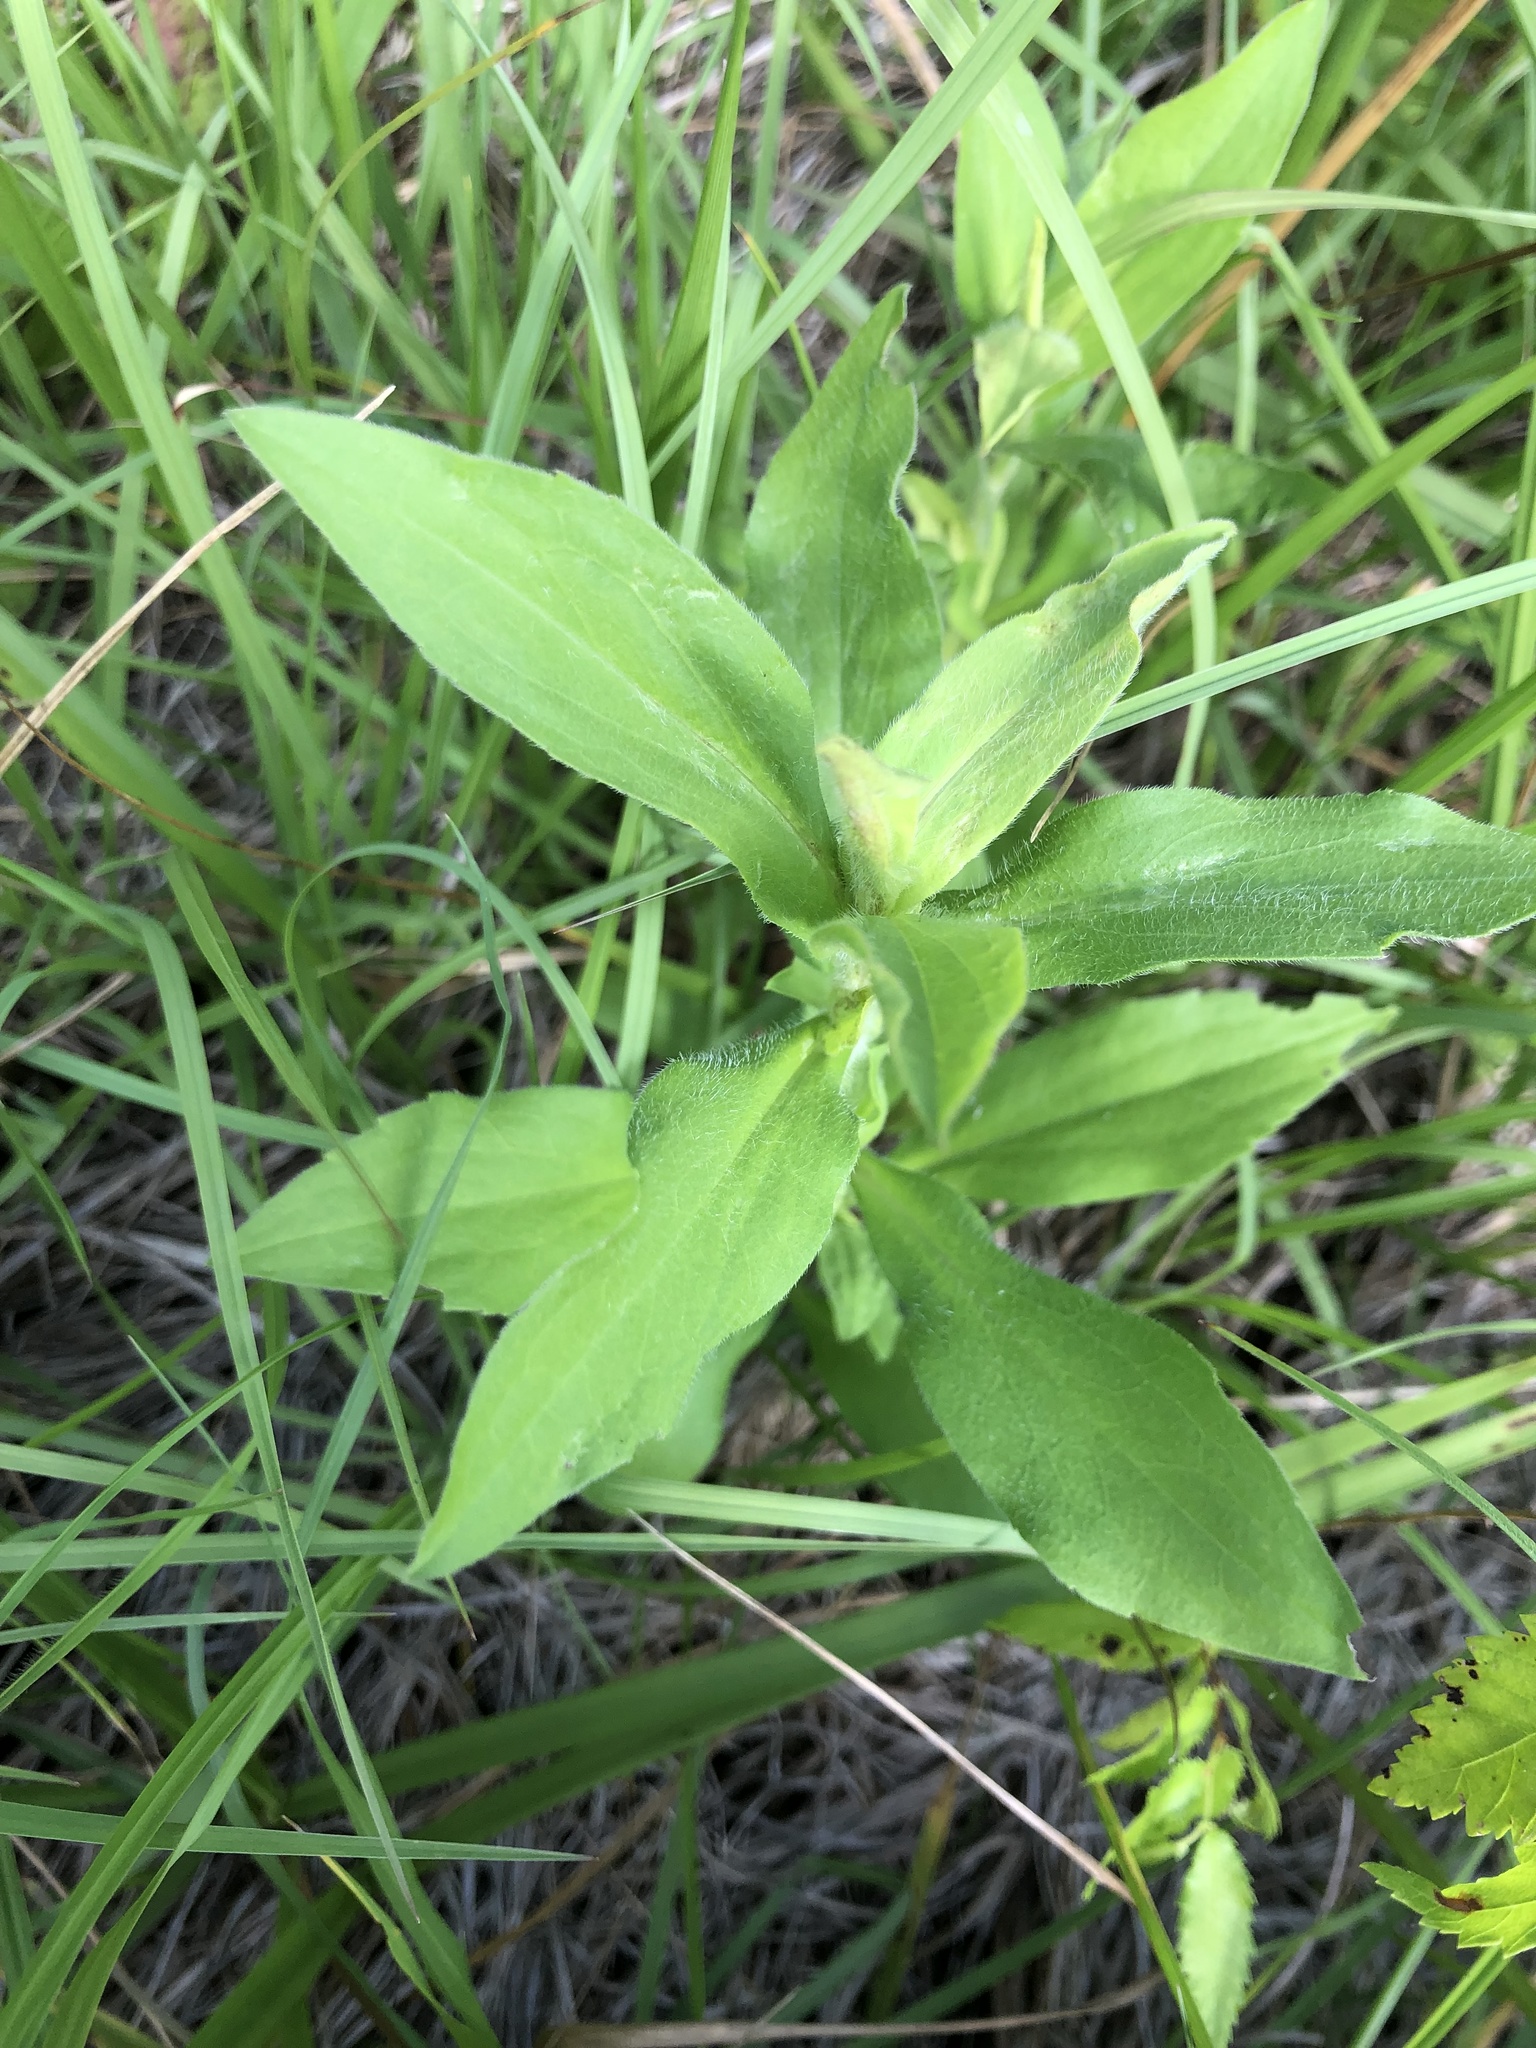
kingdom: Plantae
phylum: Tracheophyta
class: Magnoliopsida
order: Asterales
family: Asteraceae
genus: Symphyotrichum
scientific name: Symphyotrichum pilosum
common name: Awl aster
